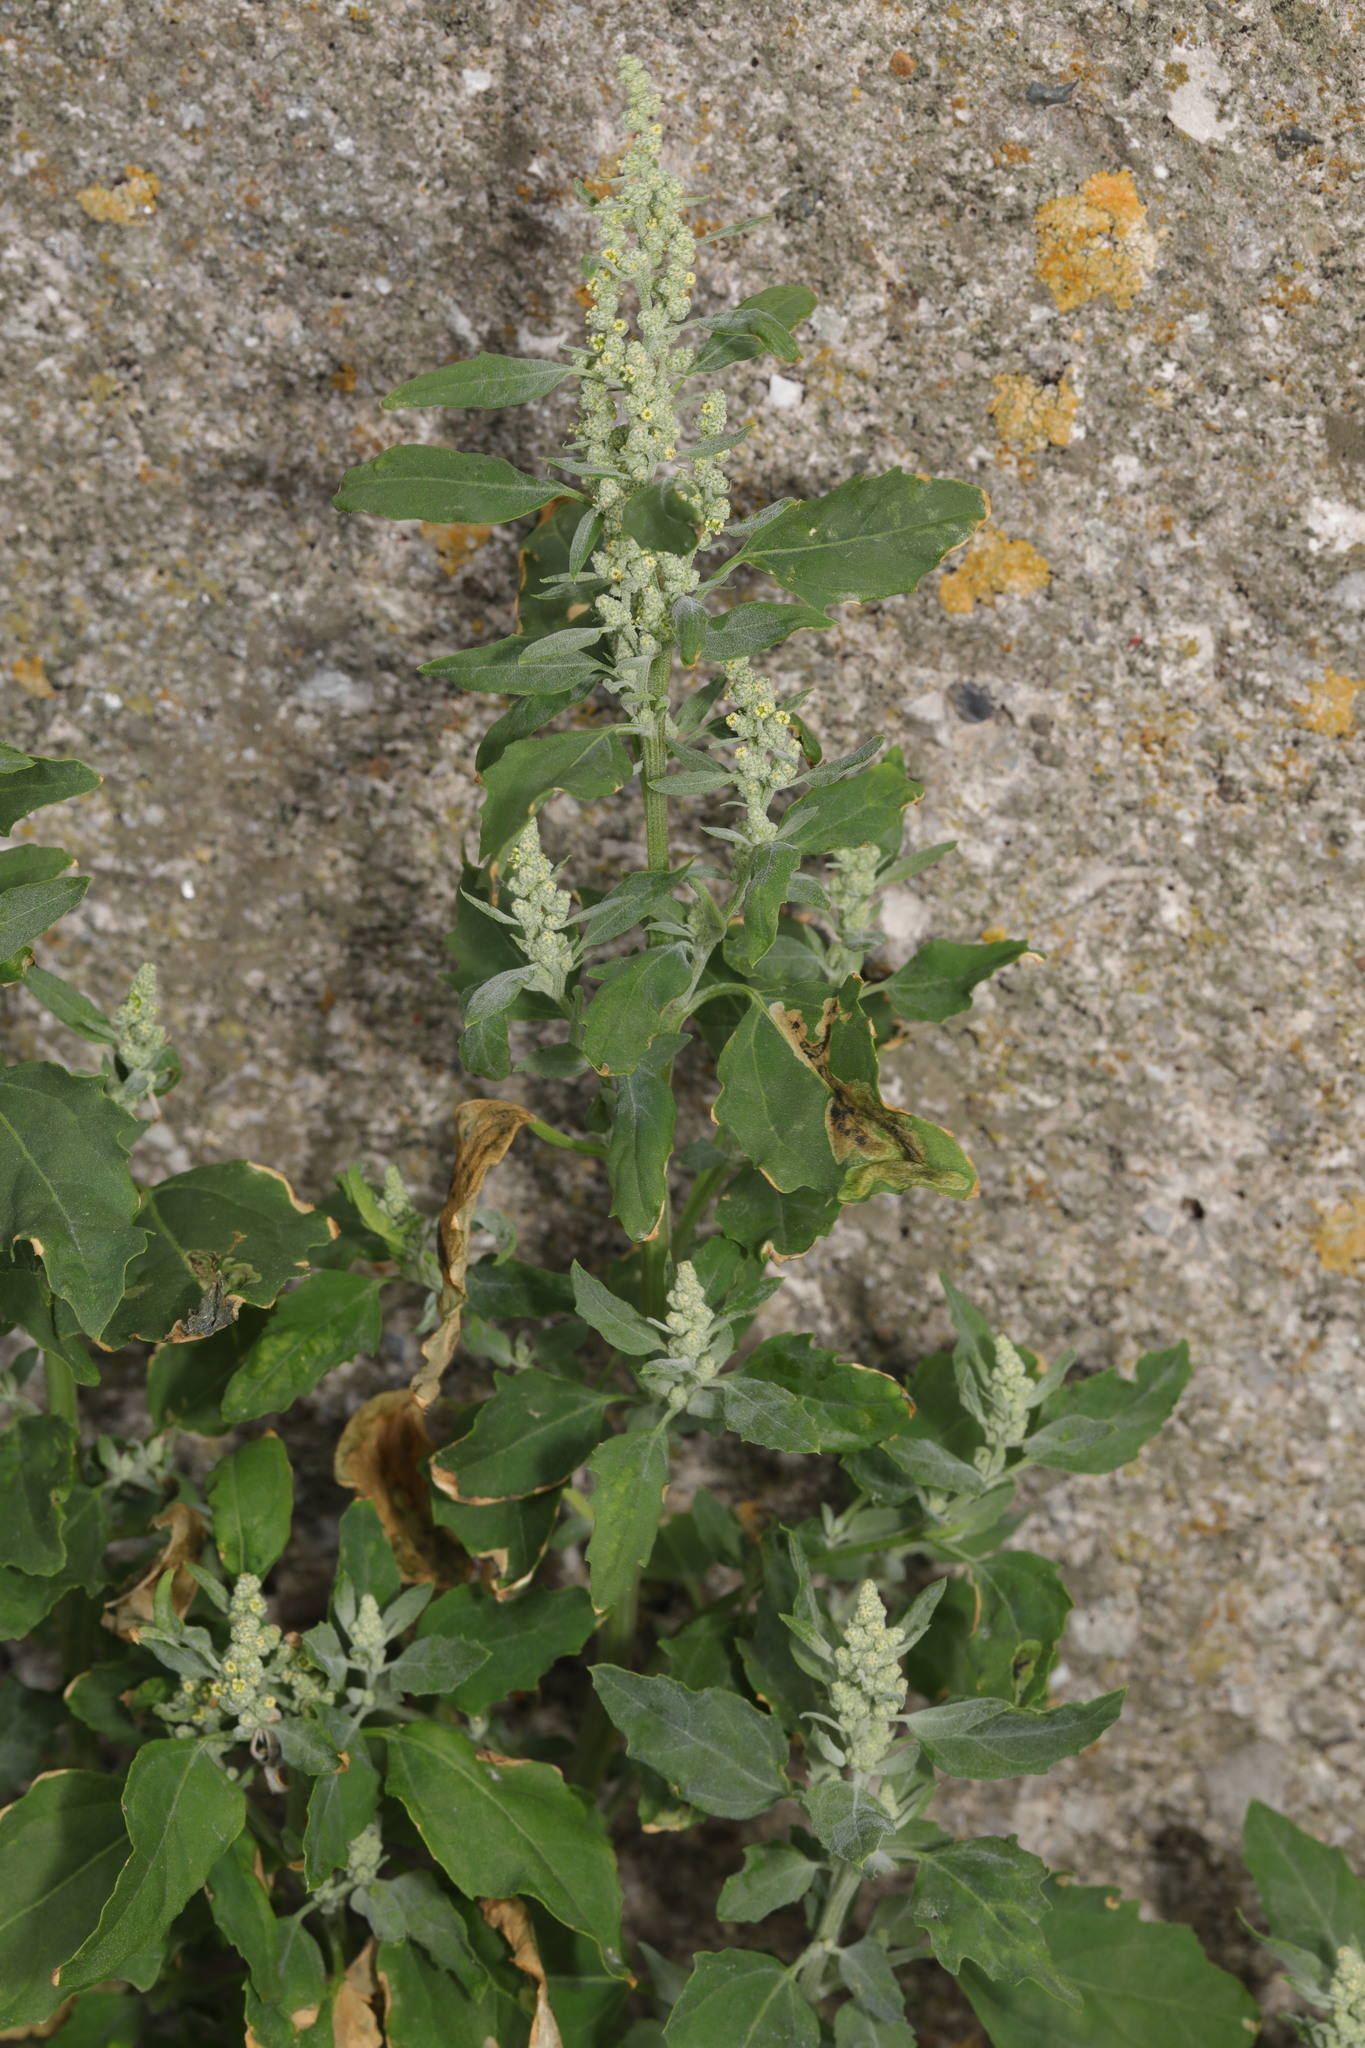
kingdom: Plantae
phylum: Tracheophyta
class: Magnoliopsida
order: Caryophyllales
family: Amaranthaceae
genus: Chenopodium
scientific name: Chenopodium album
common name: Fat-hen
